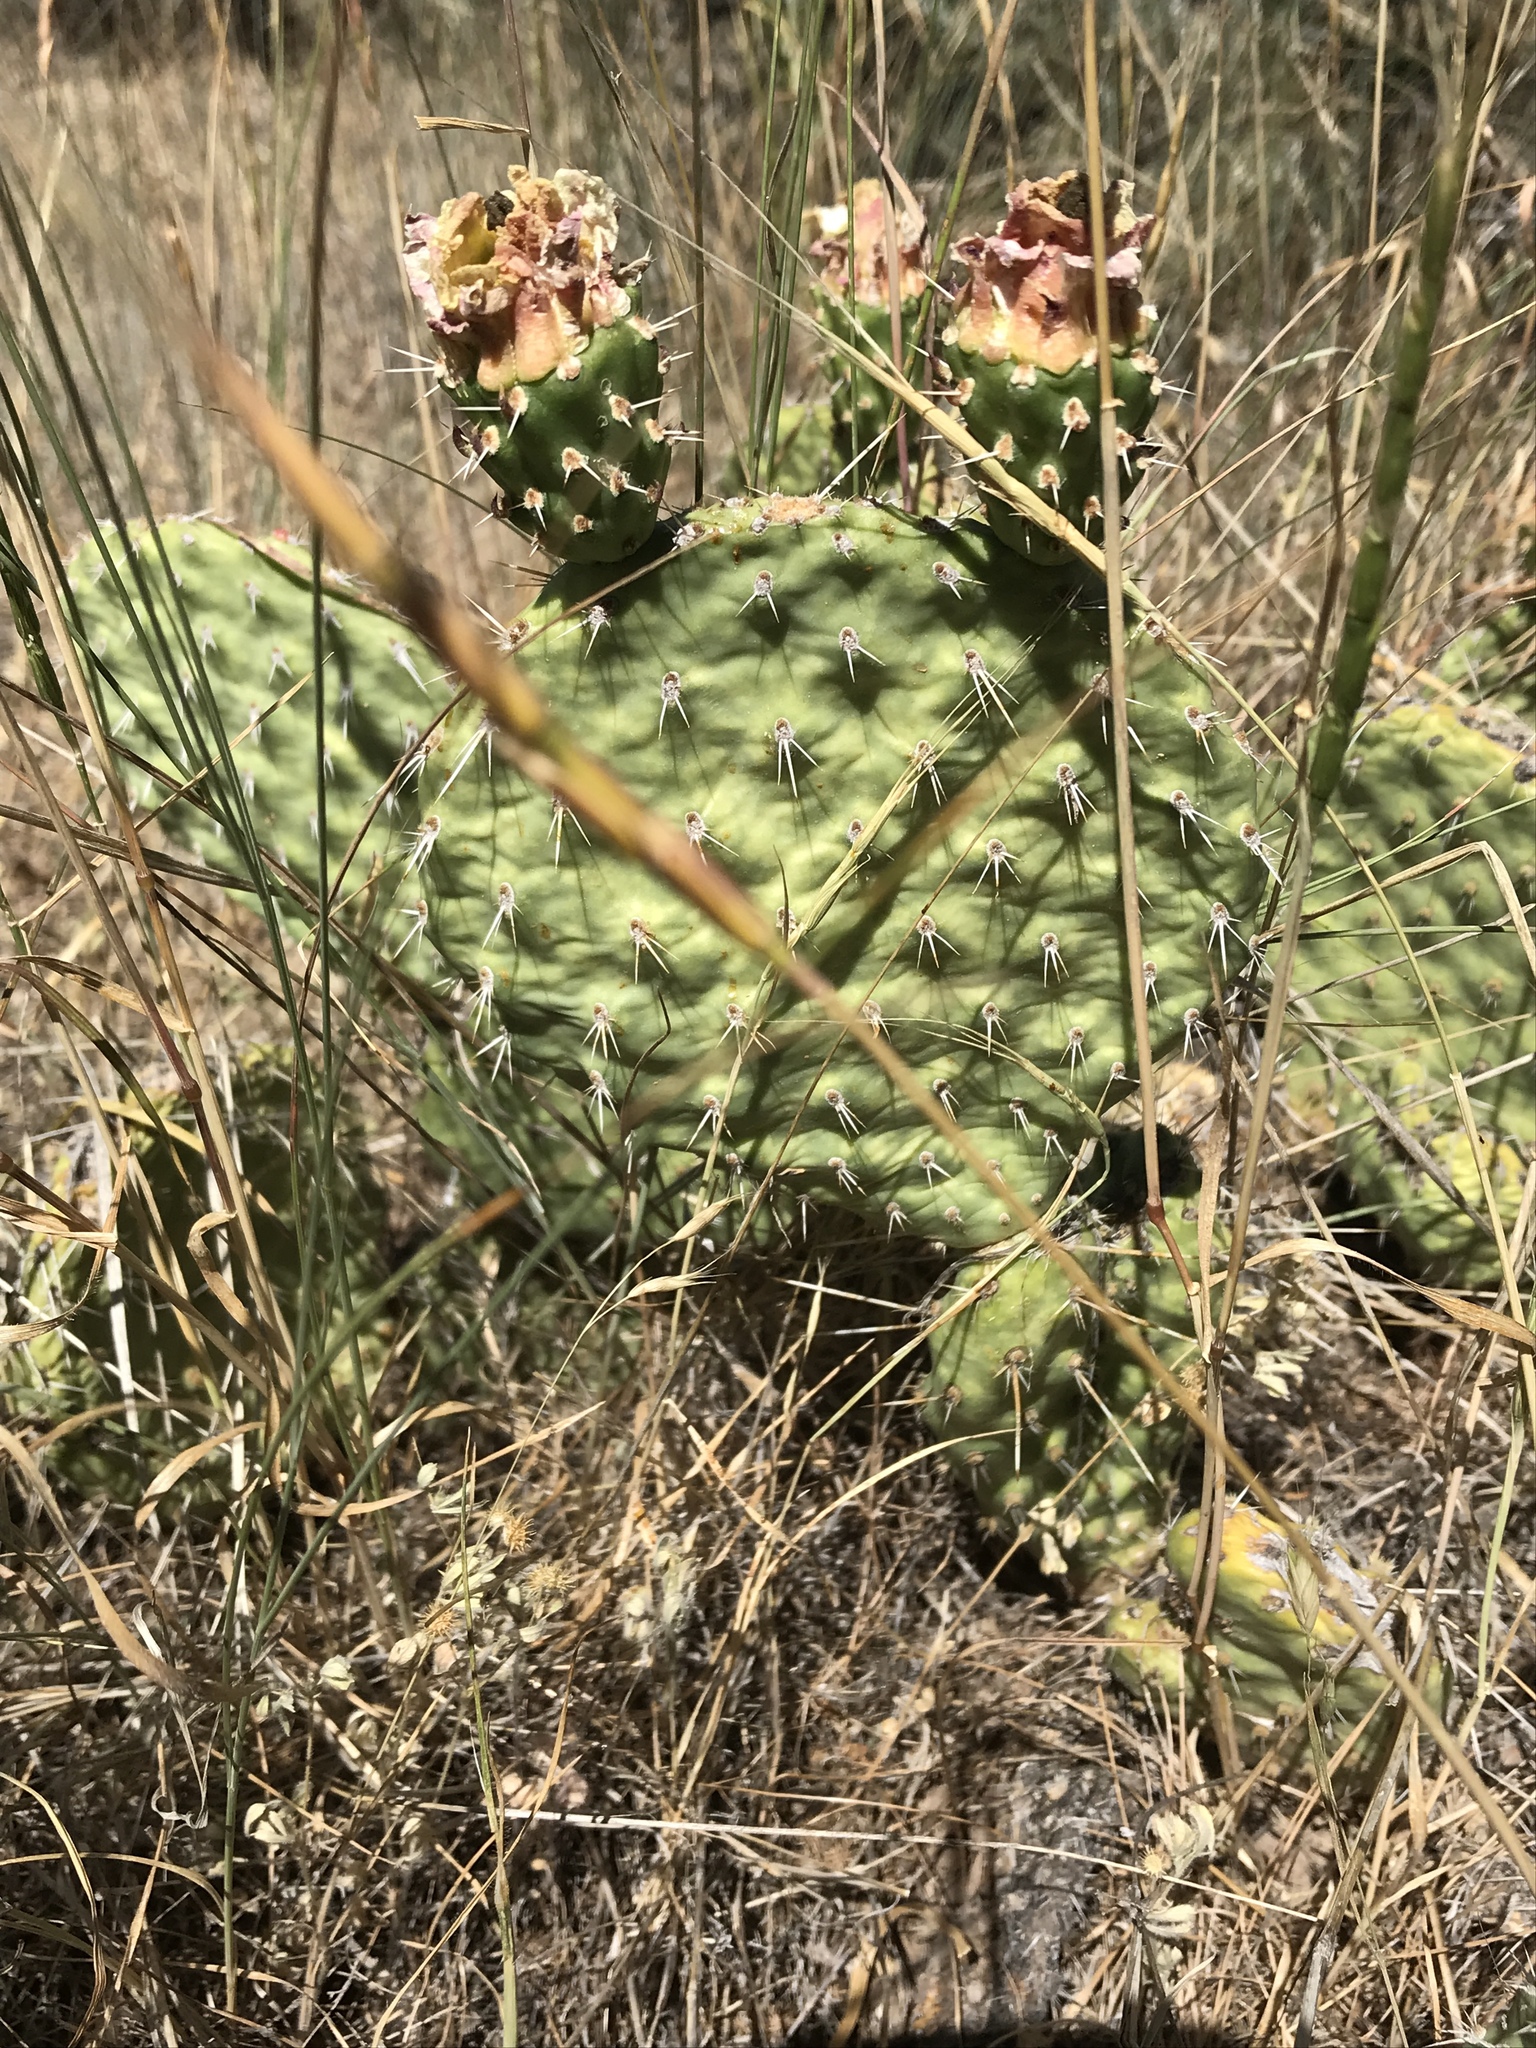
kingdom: Plantae
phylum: Tracheophyta
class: Magnoliopsida
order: Caryophyllales
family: Cactaceae
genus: Opuntia
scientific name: Opuntia polyacantha
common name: Plains prickly-pear
